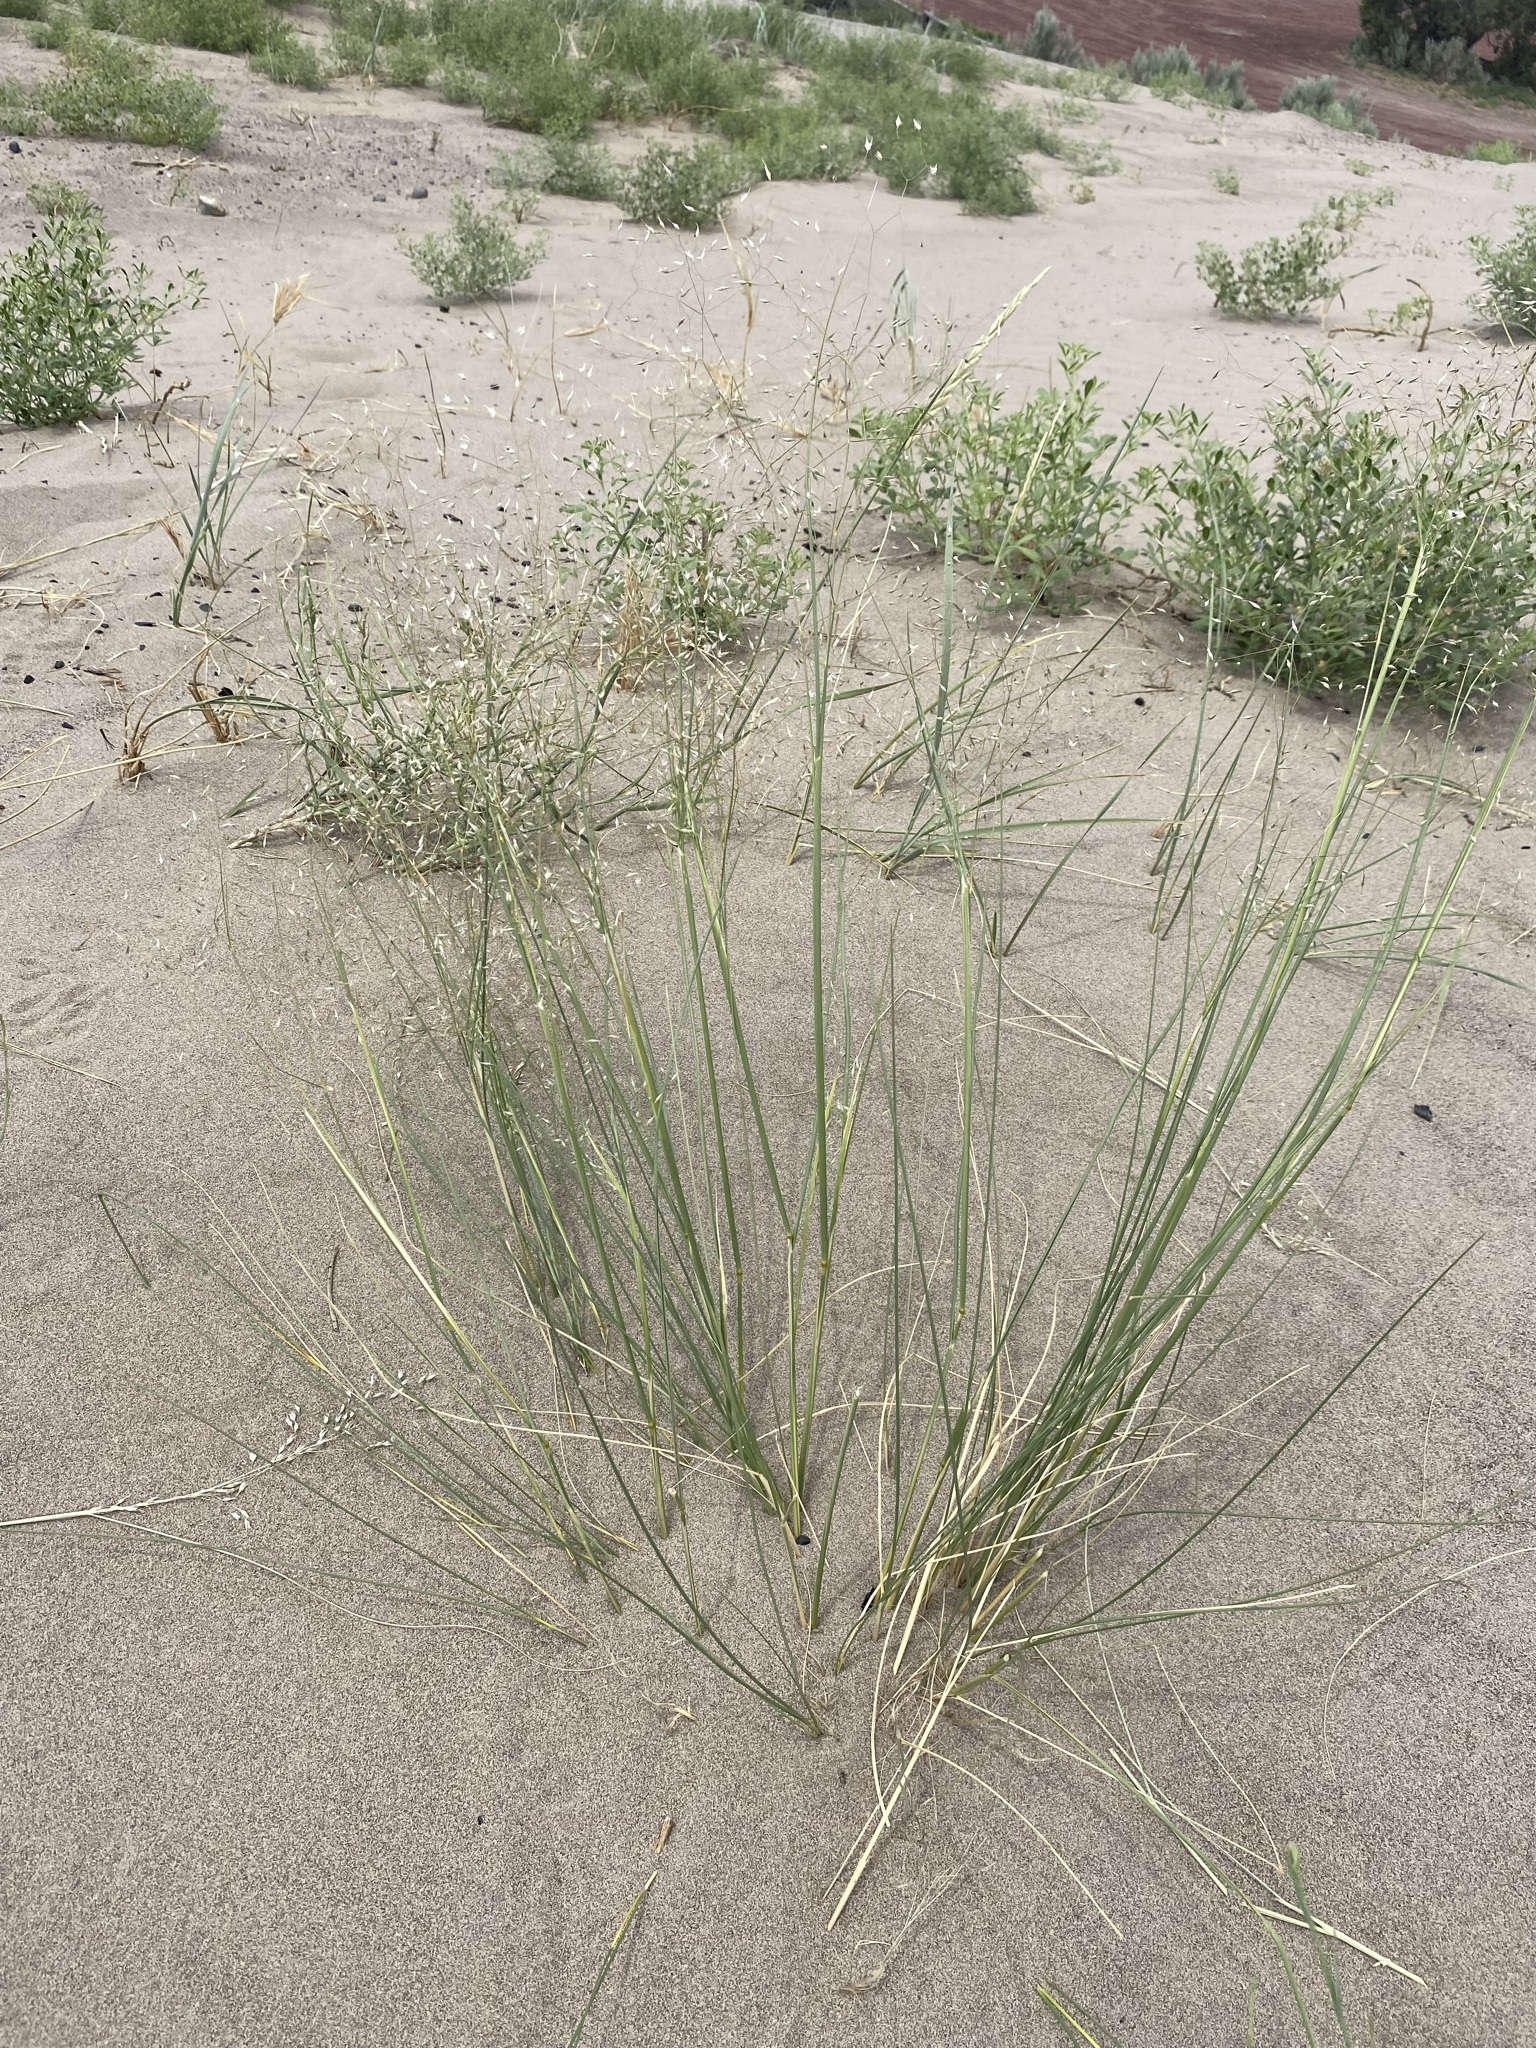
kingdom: Plantae
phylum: Tracheophyta
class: Liliopsida
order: Poales
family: Poaceae
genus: Eriocoma
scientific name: Eriocoma hymenoides
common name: Indian mountain ricegrass
